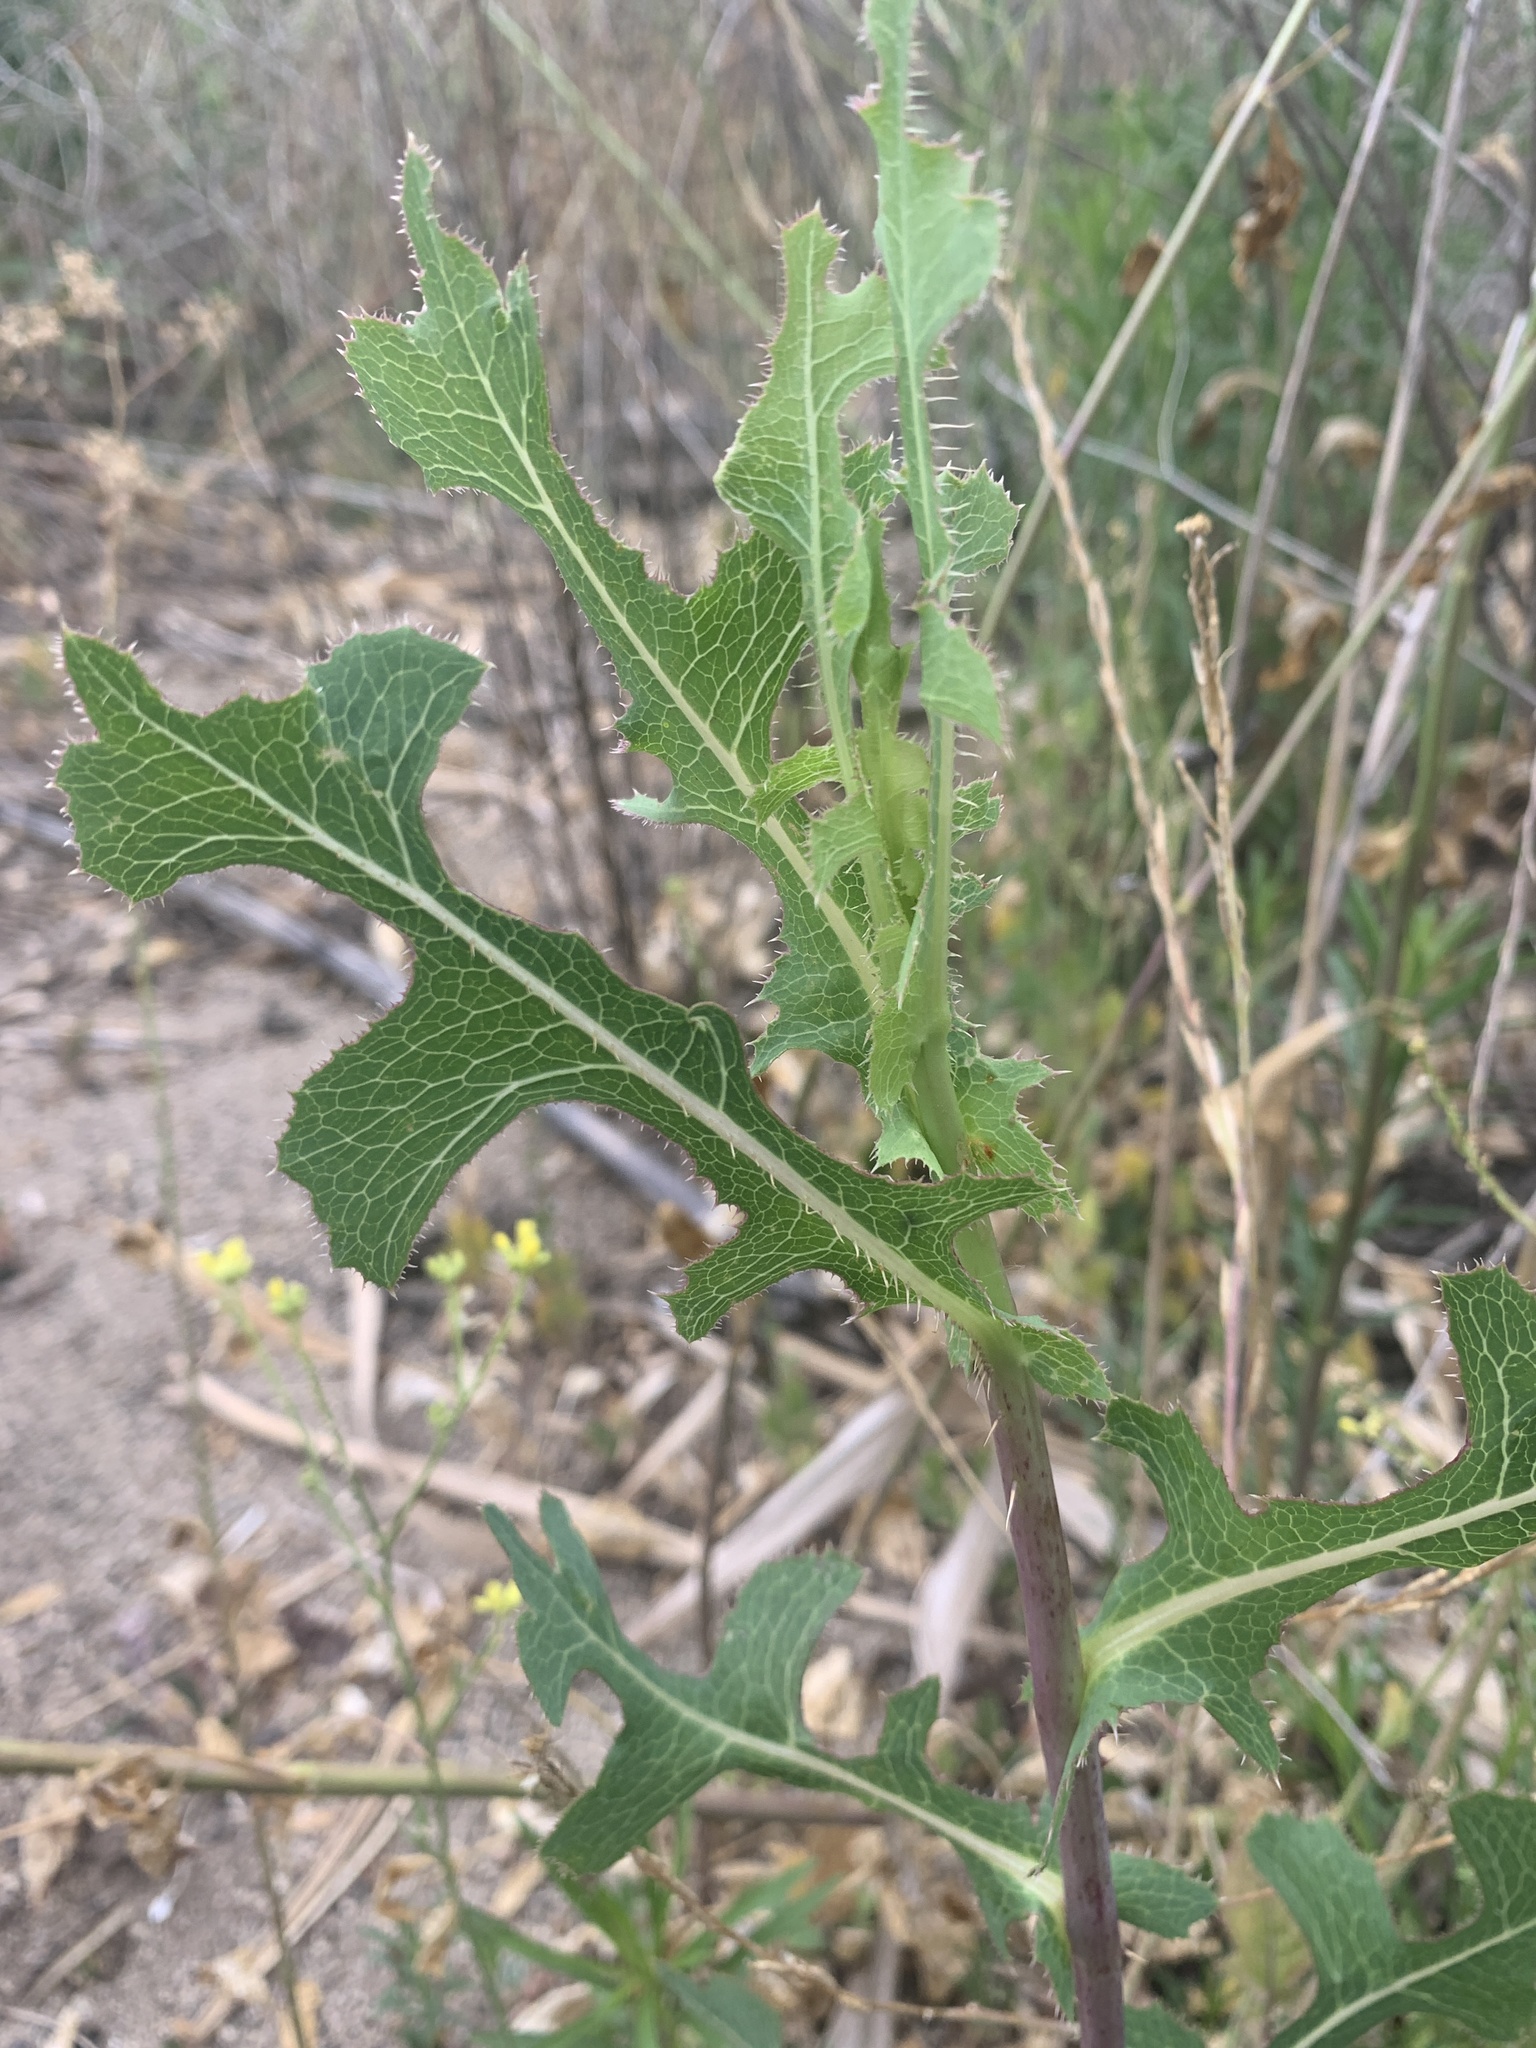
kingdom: Plantae
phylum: Tracheophyta
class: Magnoliopsida
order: Asterales
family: Asteraceae
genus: Lactuca
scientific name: Lactuca serriola
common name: Prickly lettuce
